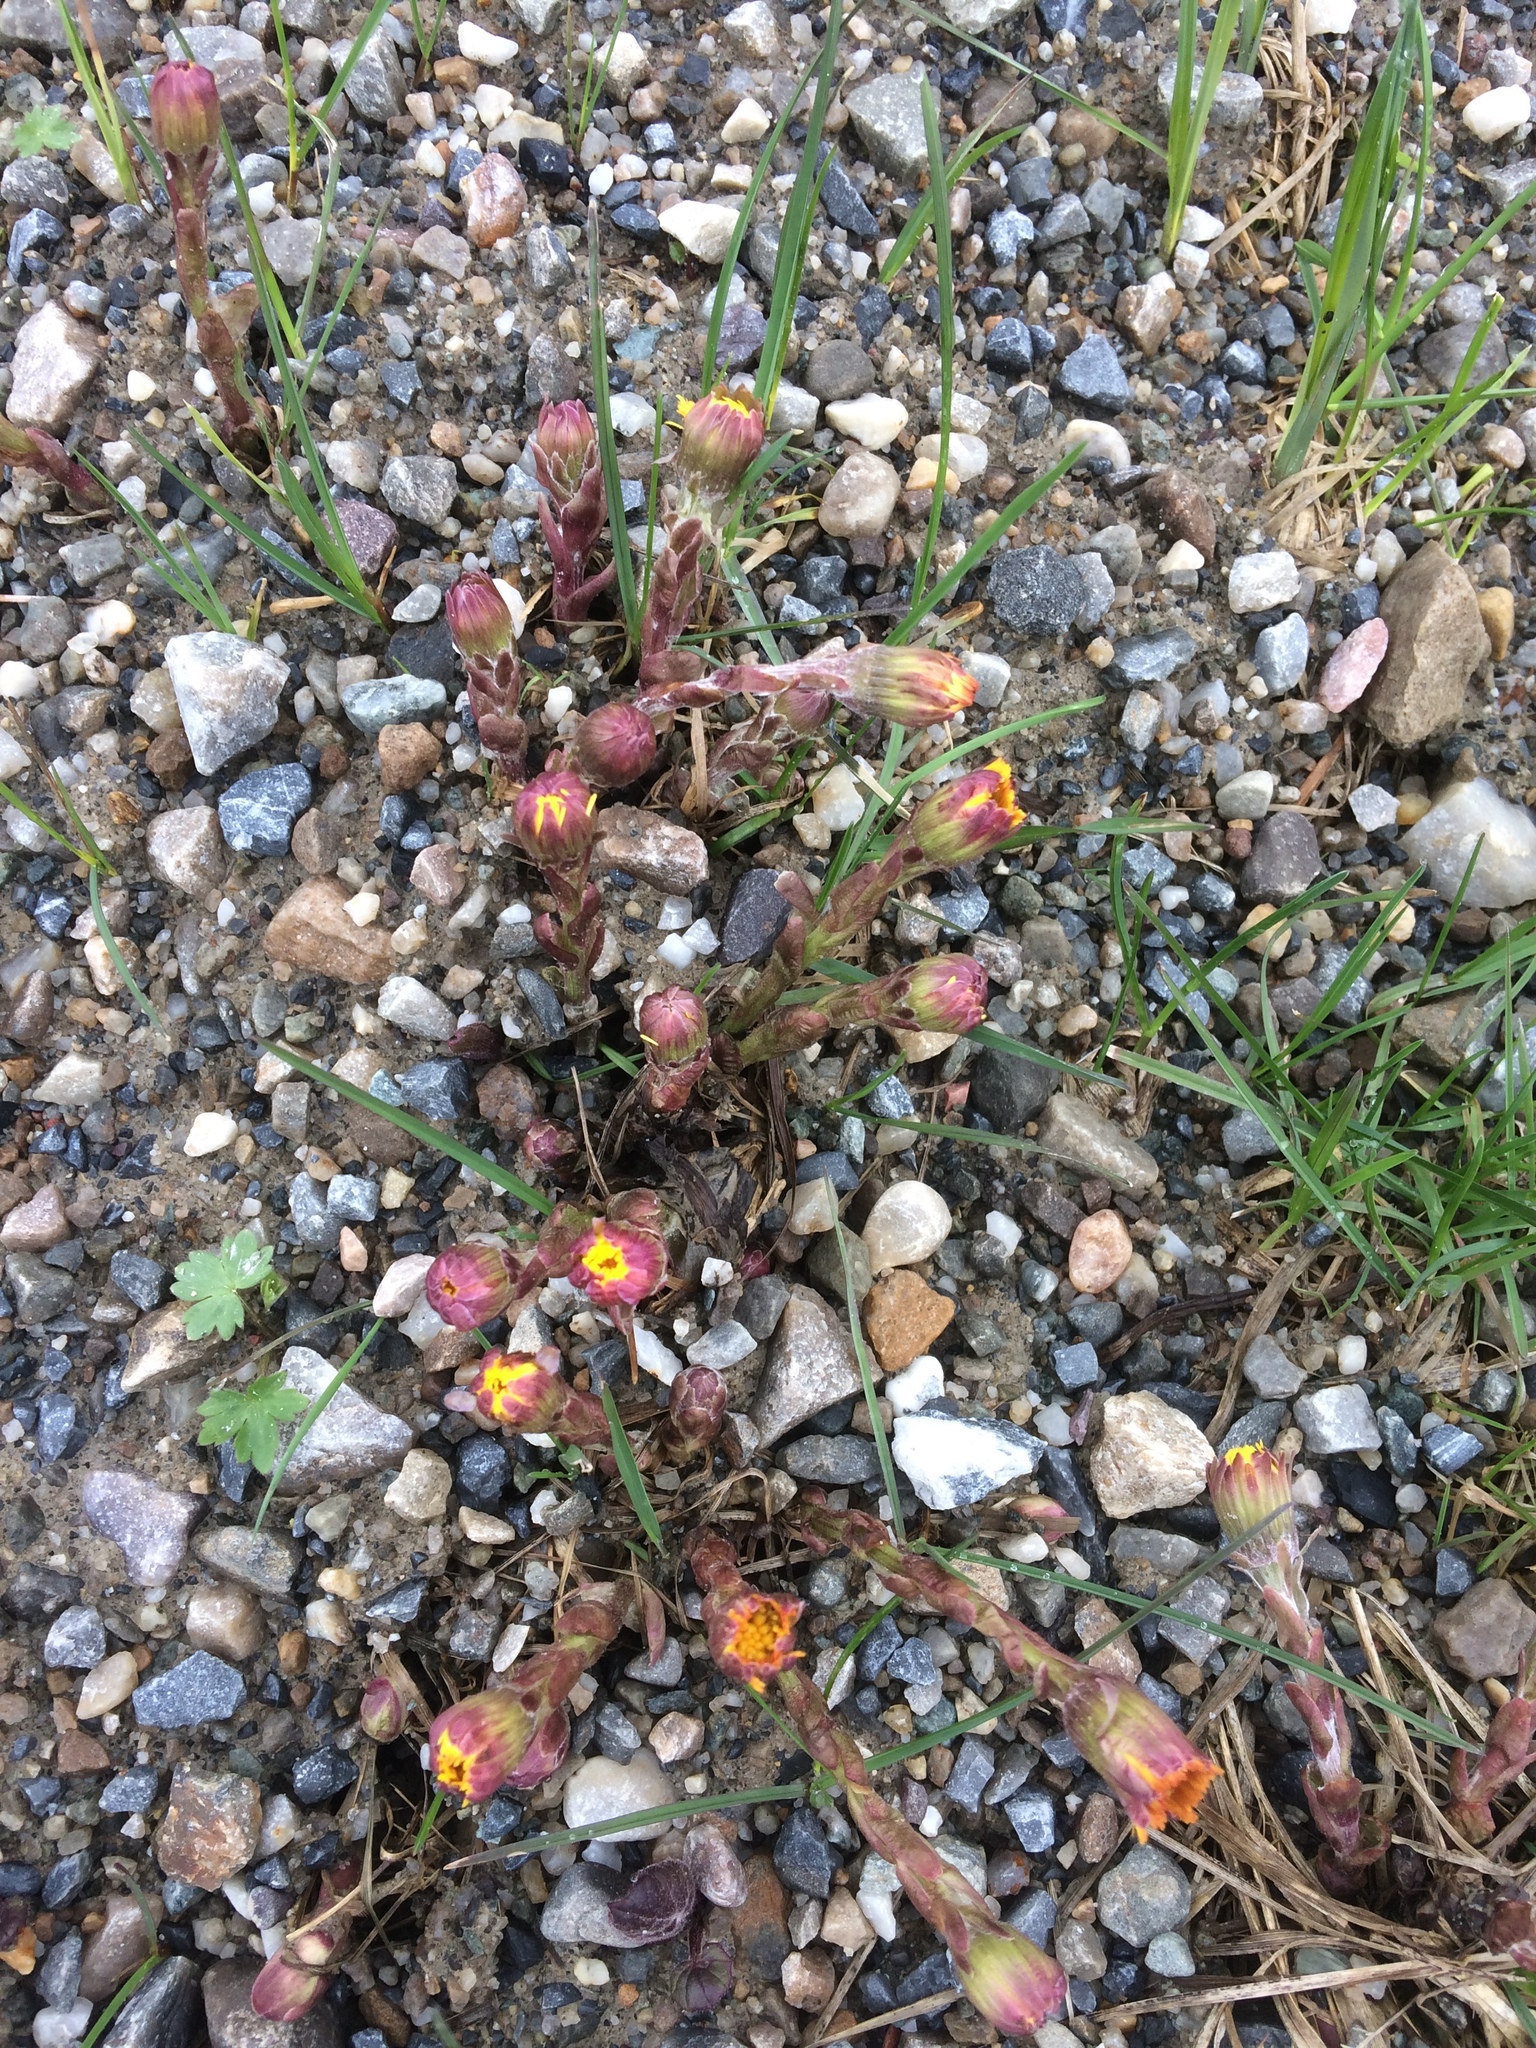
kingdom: Plantae
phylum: Tracheophyta
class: Magnoliopsida
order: Asterales
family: Asteraceae
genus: Tussilago
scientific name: Tussilago farfara
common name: Coltsfoot
